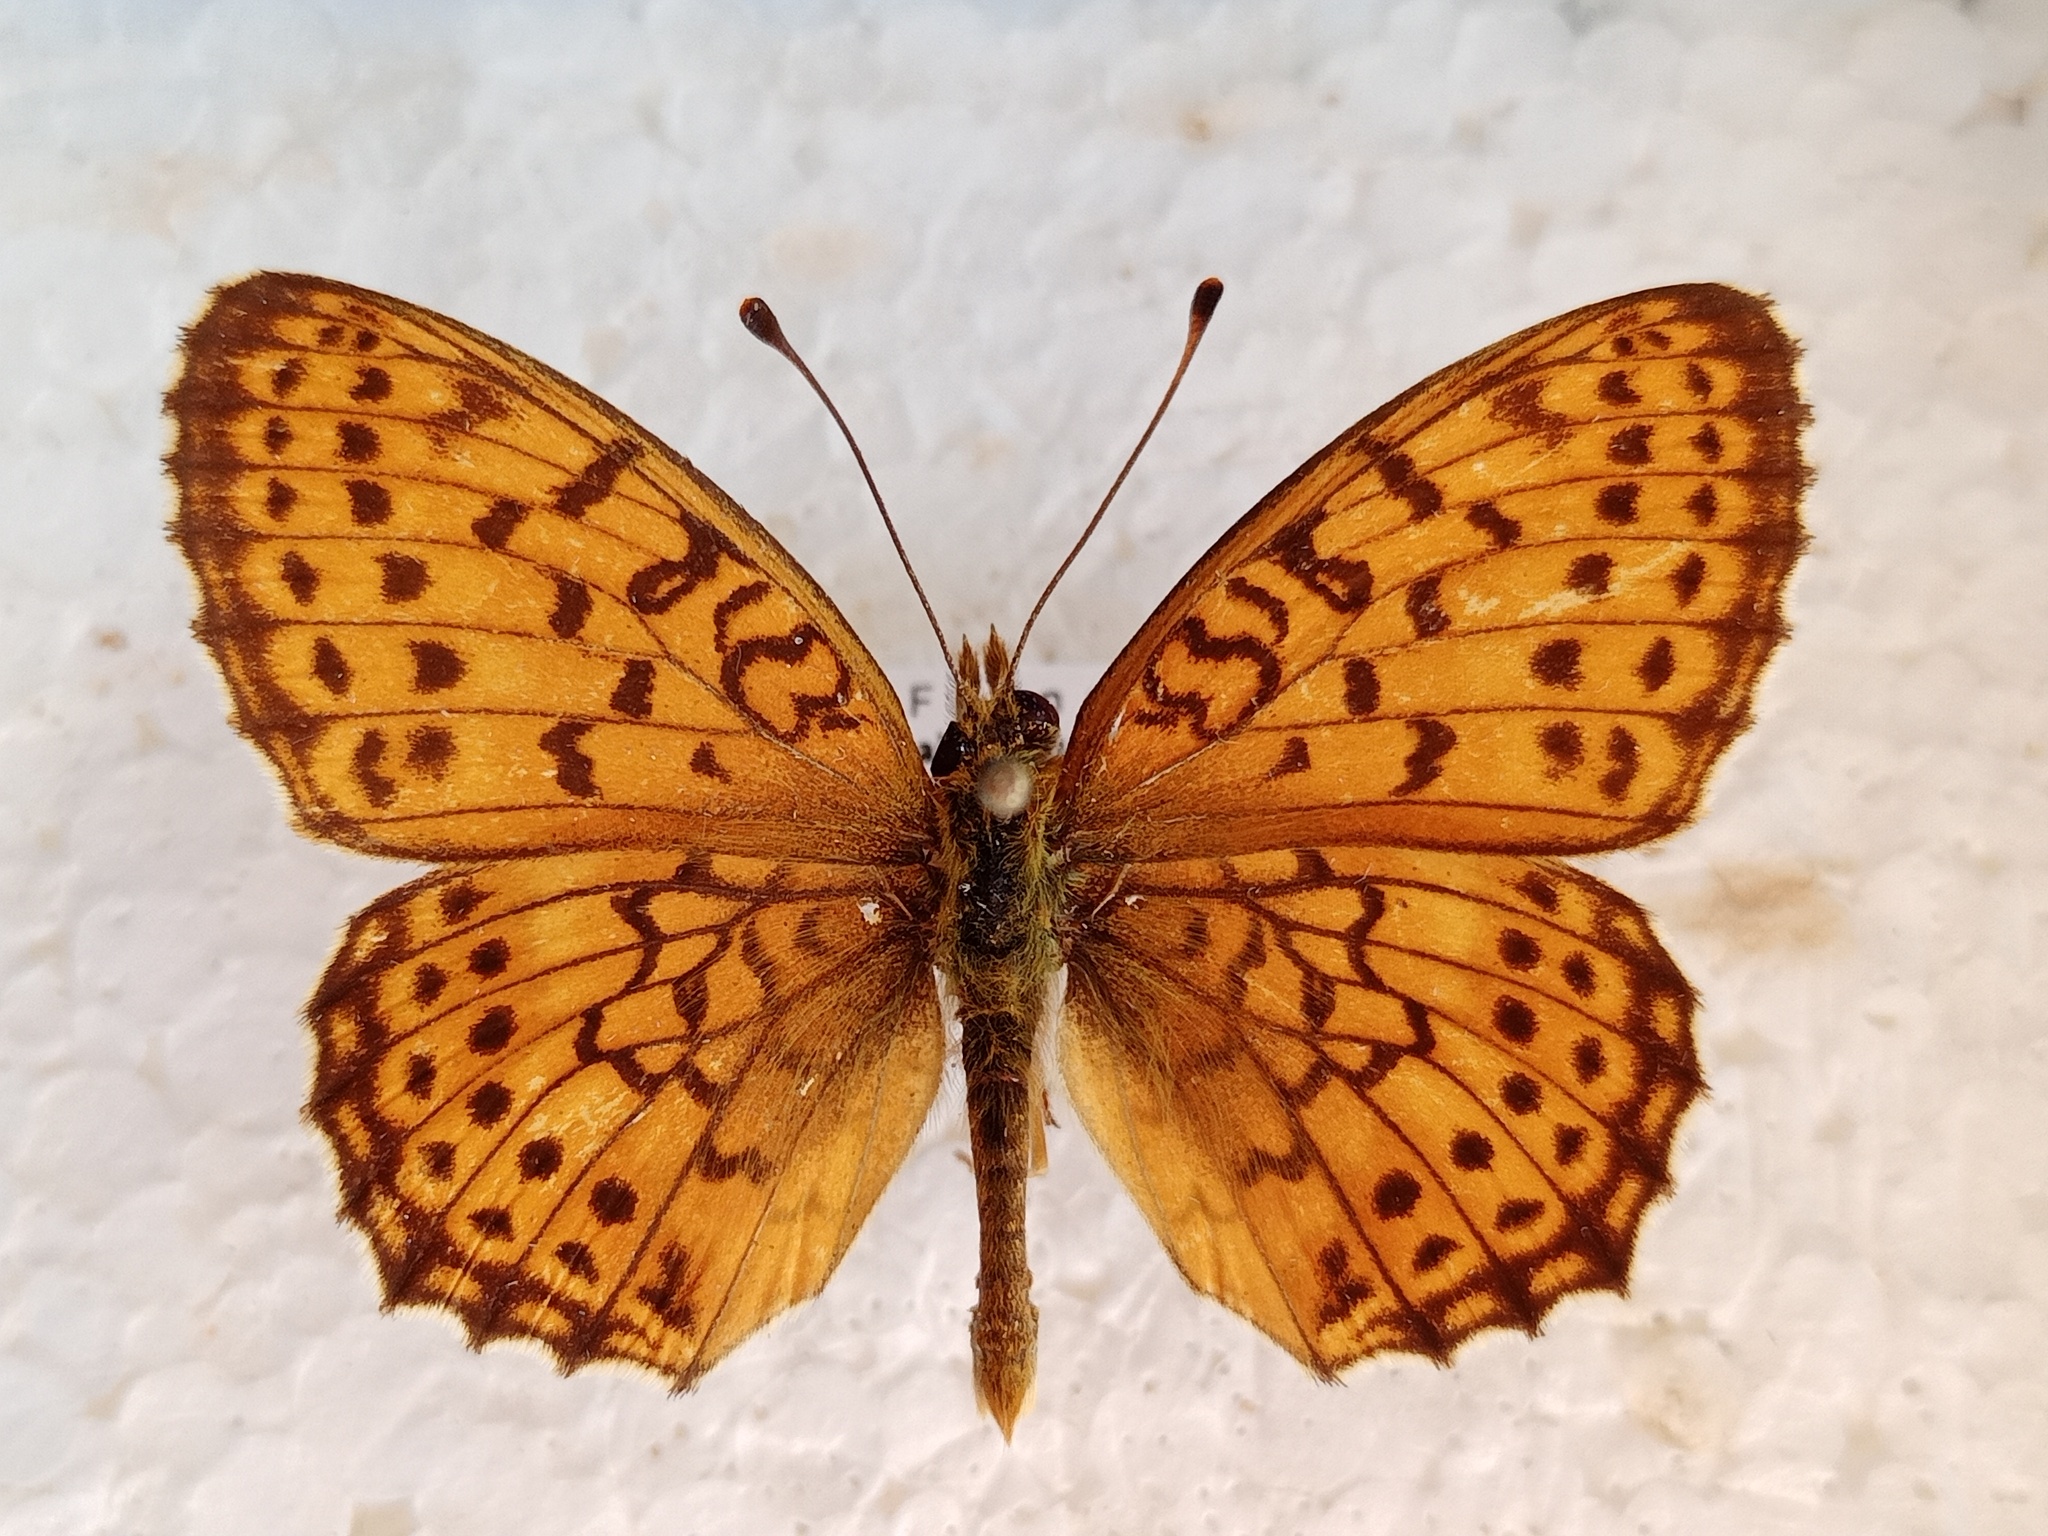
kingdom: Animalia
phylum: Arthropoda
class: Insecta
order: Lepidoptera
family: Nymphalidae
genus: Brenthis
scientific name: Brenthis hecate
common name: Twin-spot fritillary
